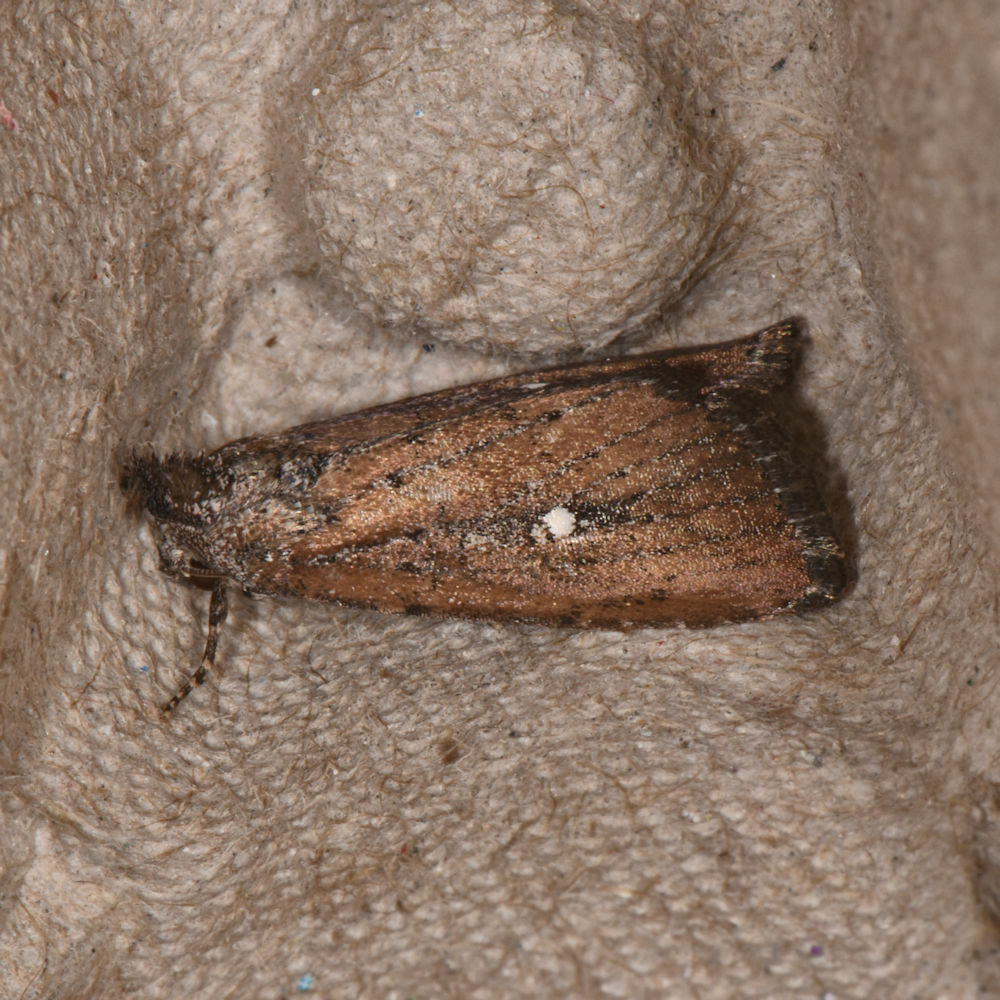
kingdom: Animalia
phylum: Arthropoda
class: Insecta
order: Lepidoptera
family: Noctuidae
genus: Condica
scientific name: Condica videns
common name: White-dotted groundling
